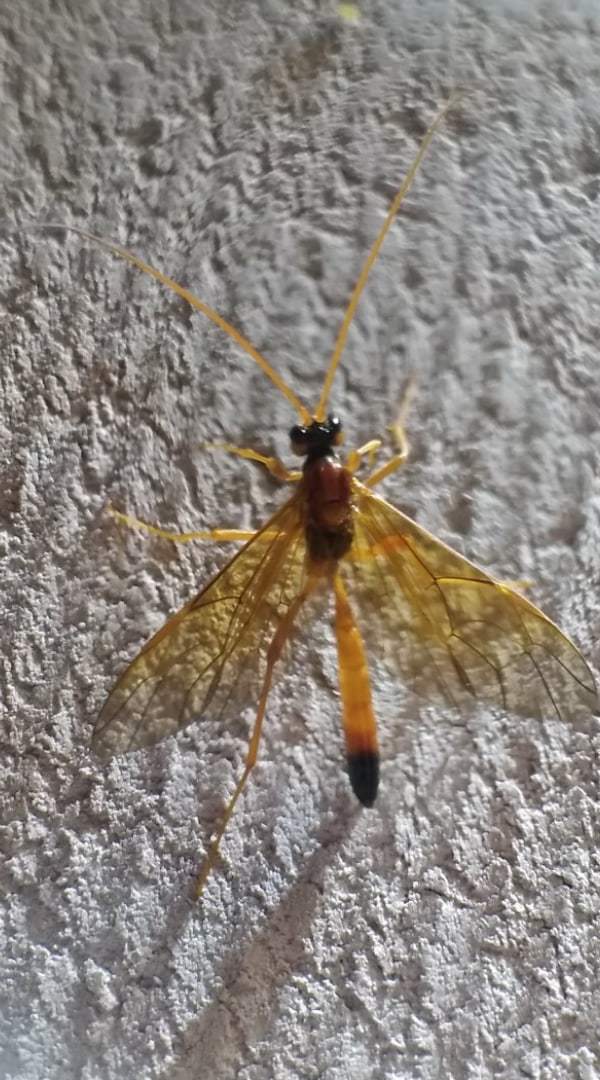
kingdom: Animalia
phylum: Arthropoda
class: Insecta
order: Hymenoptera
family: Ichneumonidae
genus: Opheltes
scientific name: Opheltes glaucopterus
